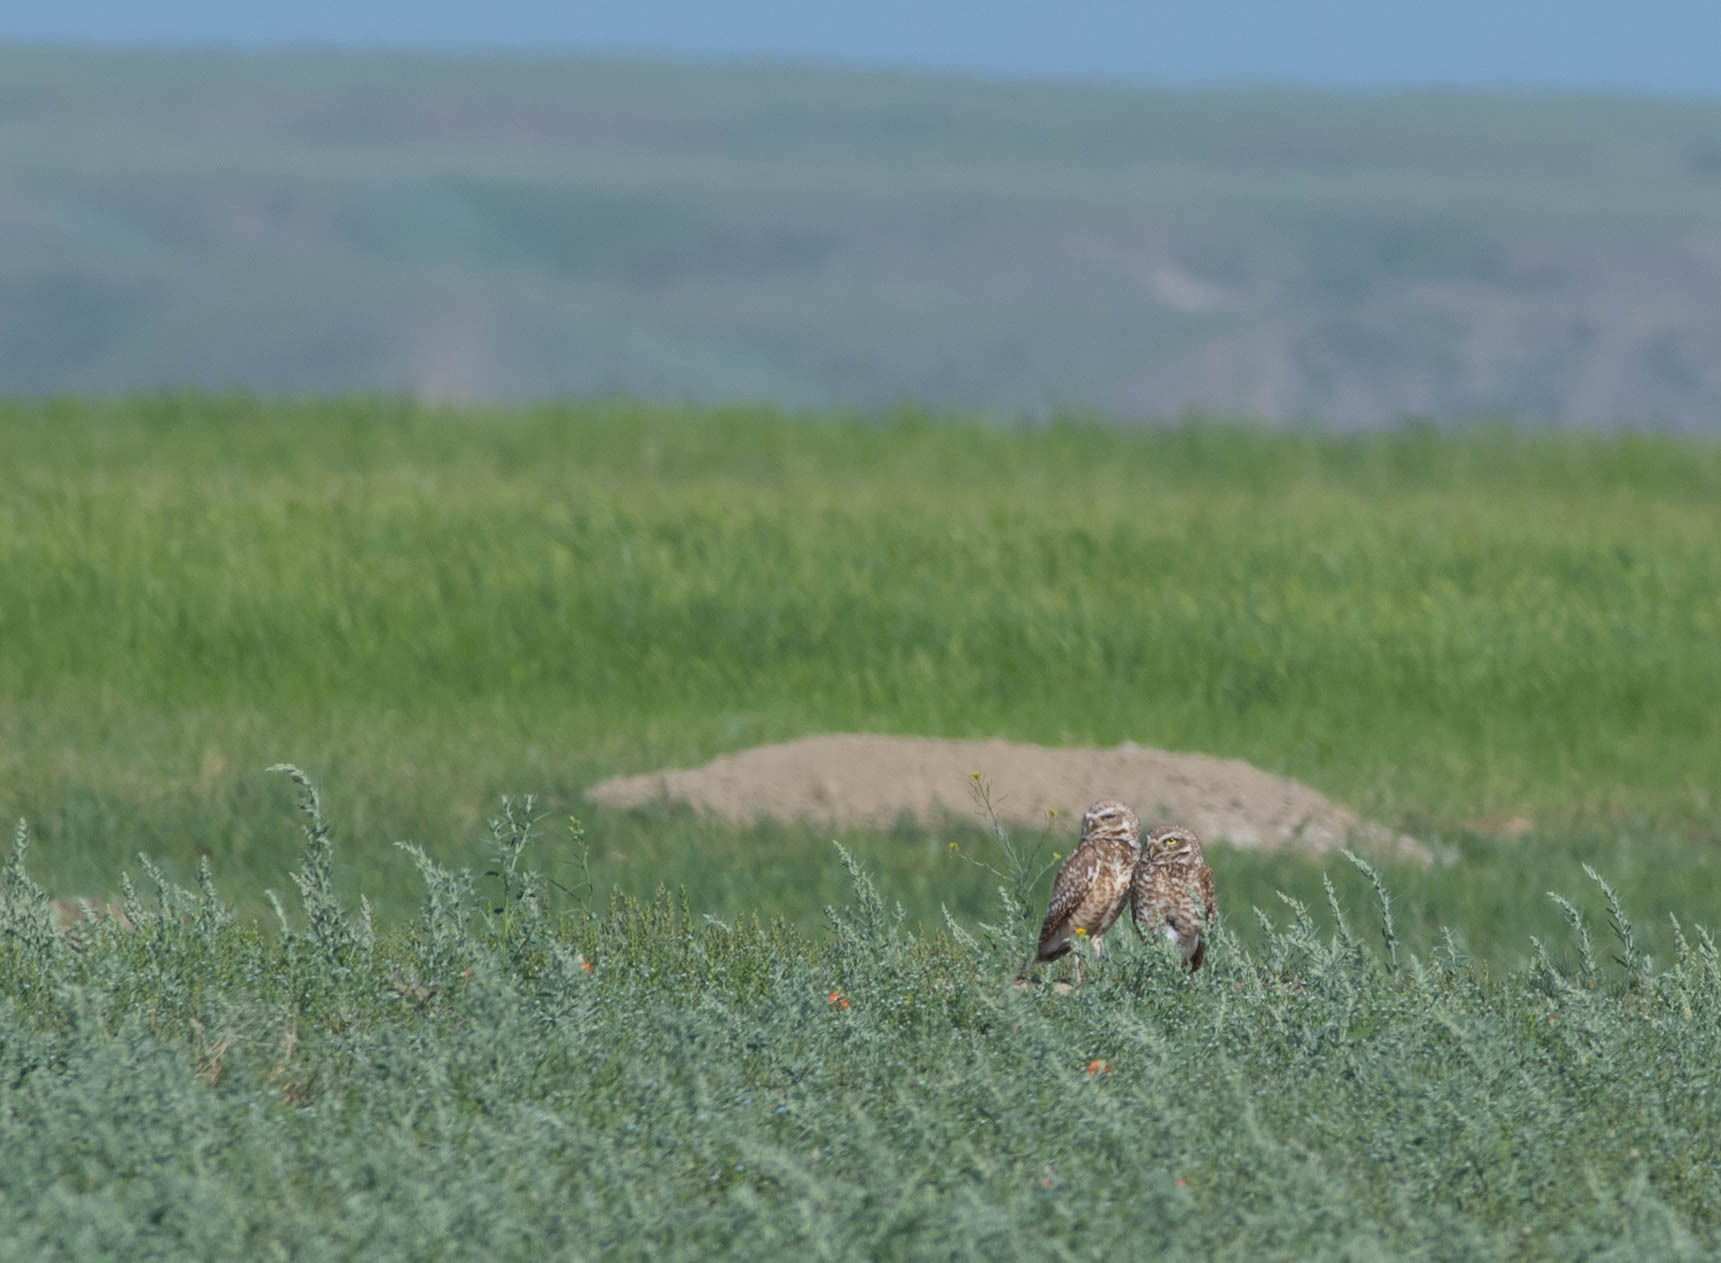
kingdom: Animalia
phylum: Chordata
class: Aves
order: Strigiformes
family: Strigidae
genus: Athene
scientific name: Athene cunicularia
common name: Burrowing owl
